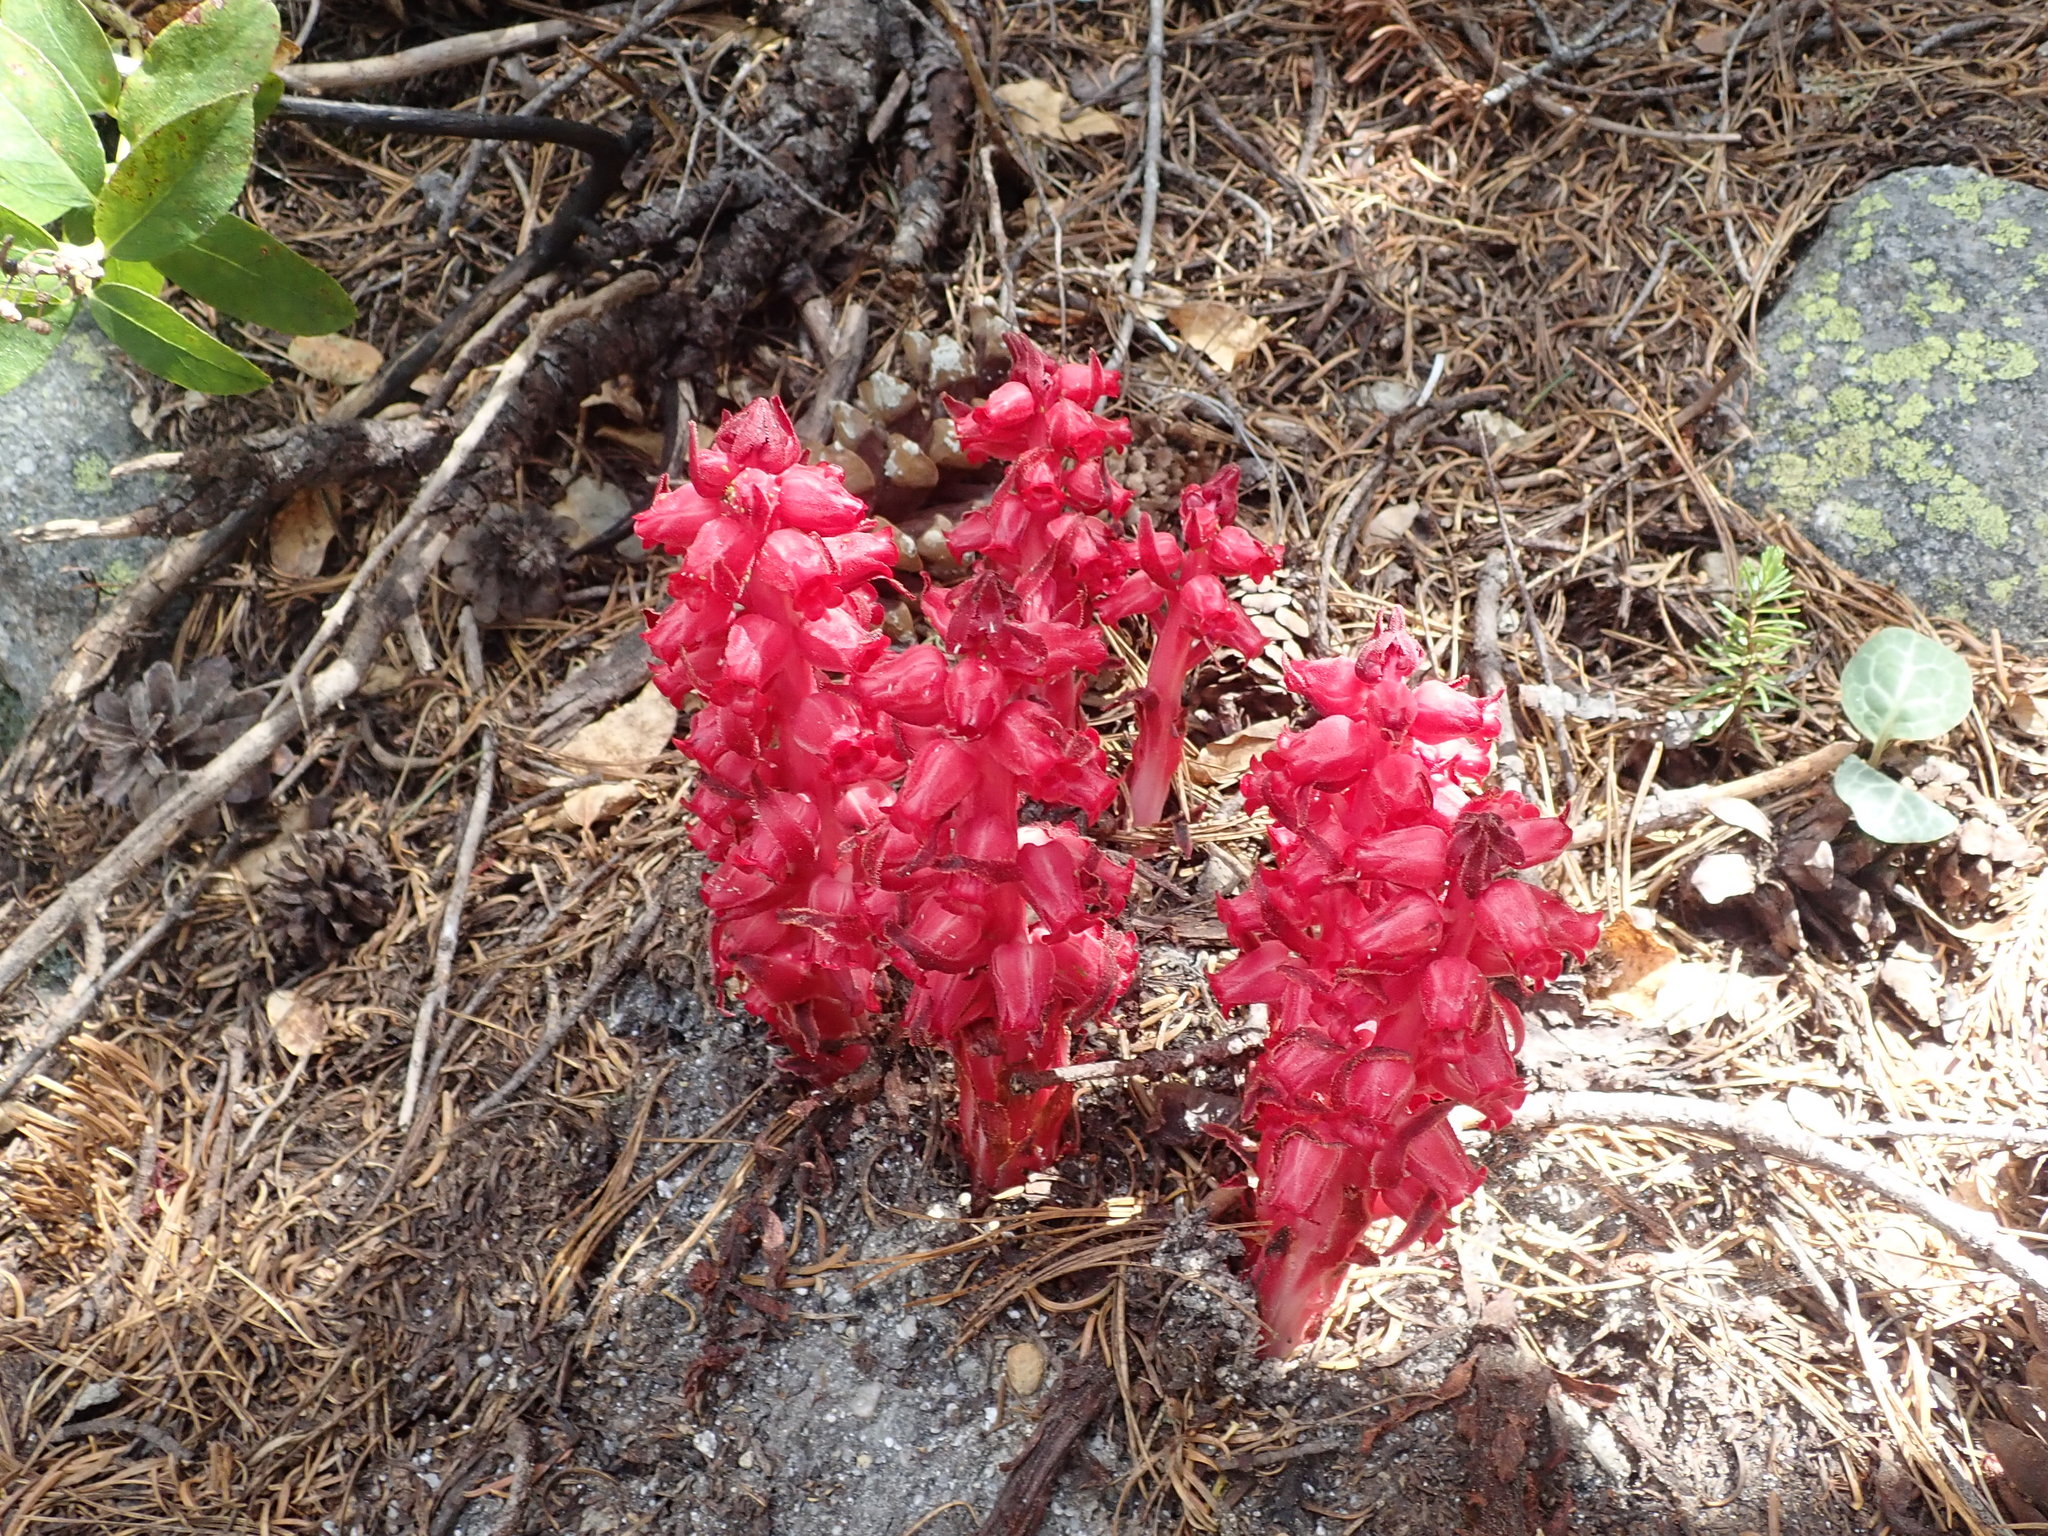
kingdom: Plantae
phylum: Tracheophyta
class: Magnoliopsida
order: Ericales
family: Ericaceae
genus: Sarcodes
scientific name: Sarcodes sanguinea
